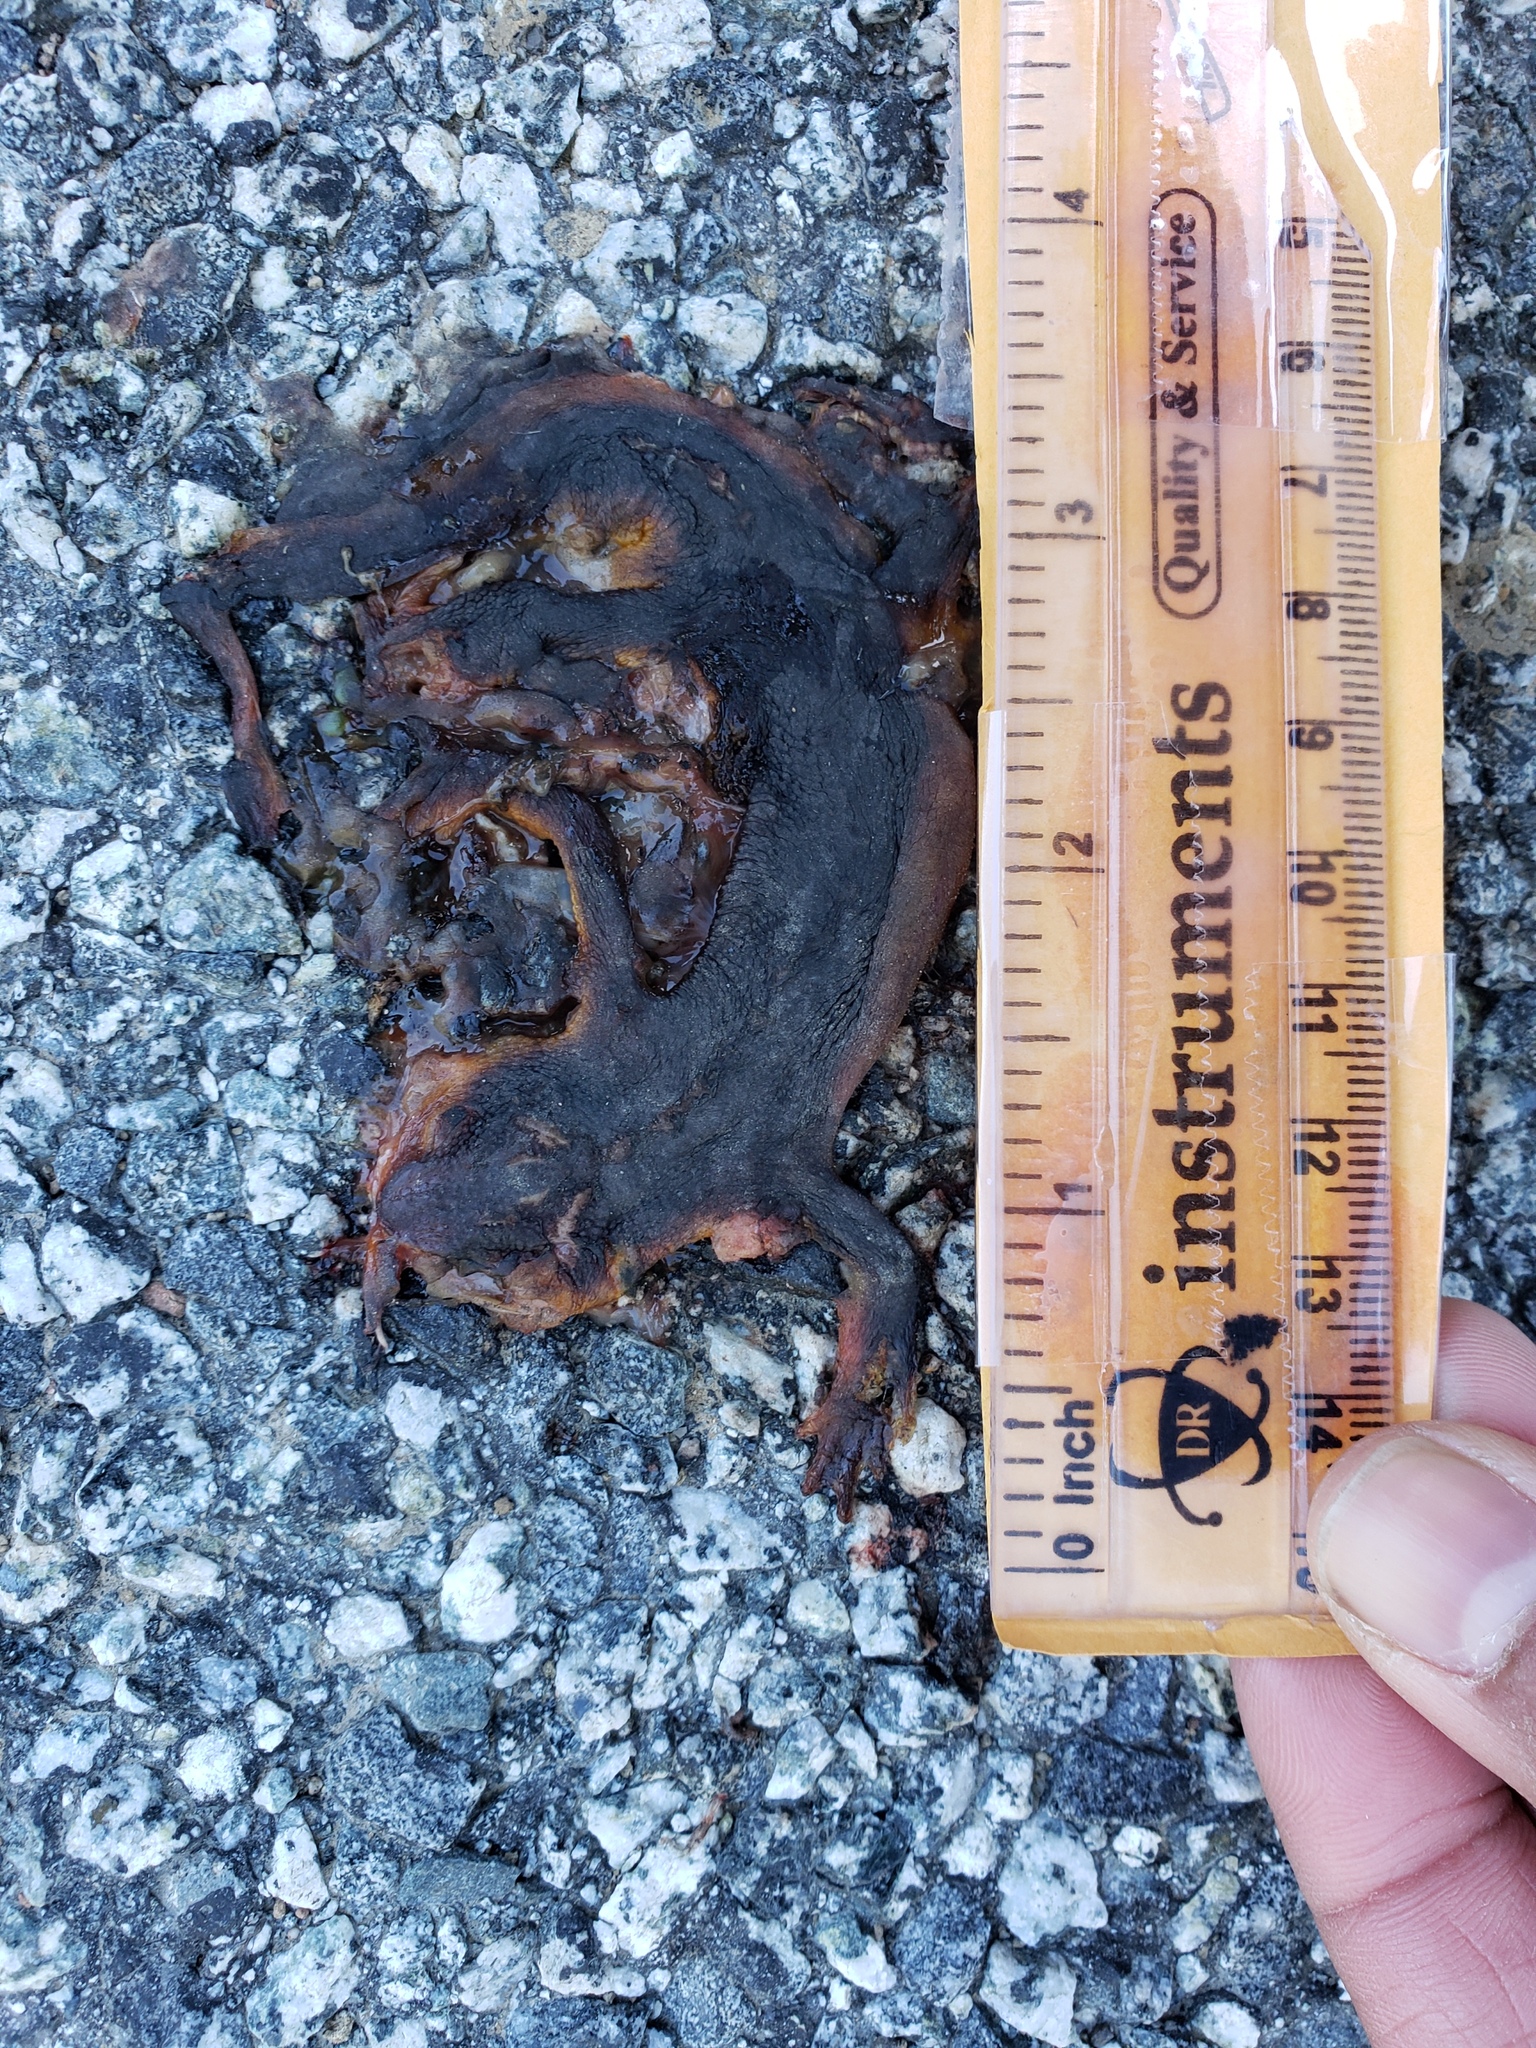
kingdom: Animalia
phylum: Chordata
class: Amphibia
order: Caudata
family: Salamandridae
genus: Taricha
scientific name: Taricha
